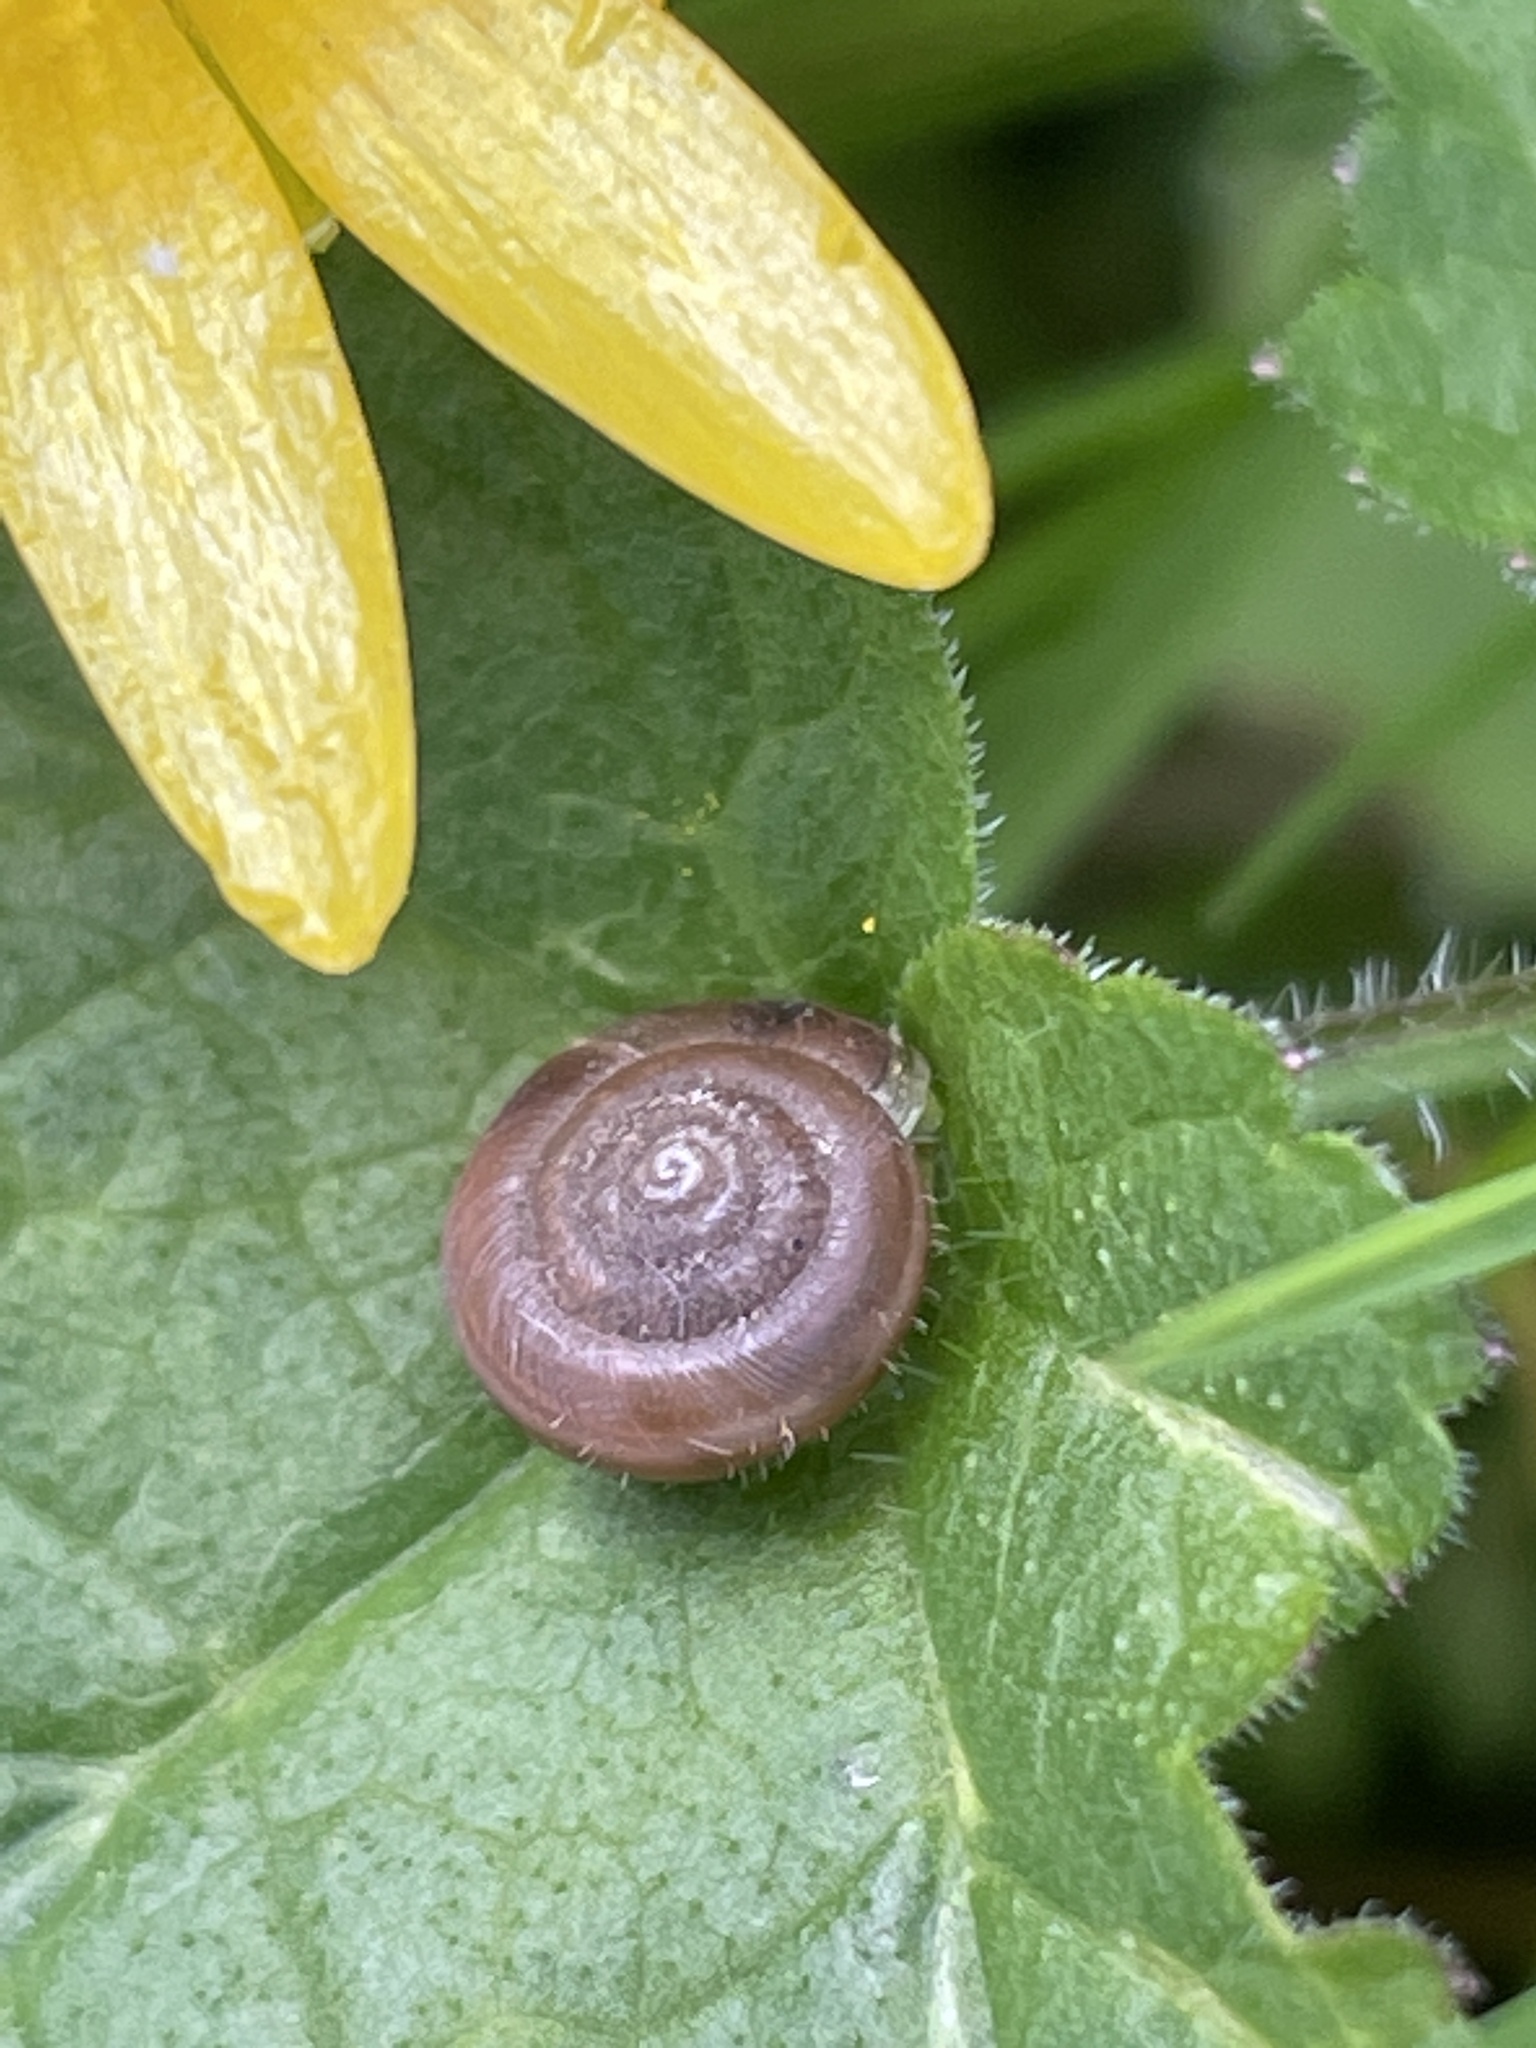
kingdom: Animalia
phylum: Mollusca
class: Gastropoda
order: Stylommatophora
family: Hygromiidae
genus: Trochulus
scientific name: Trochulus hispidus
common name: Hairy snail
